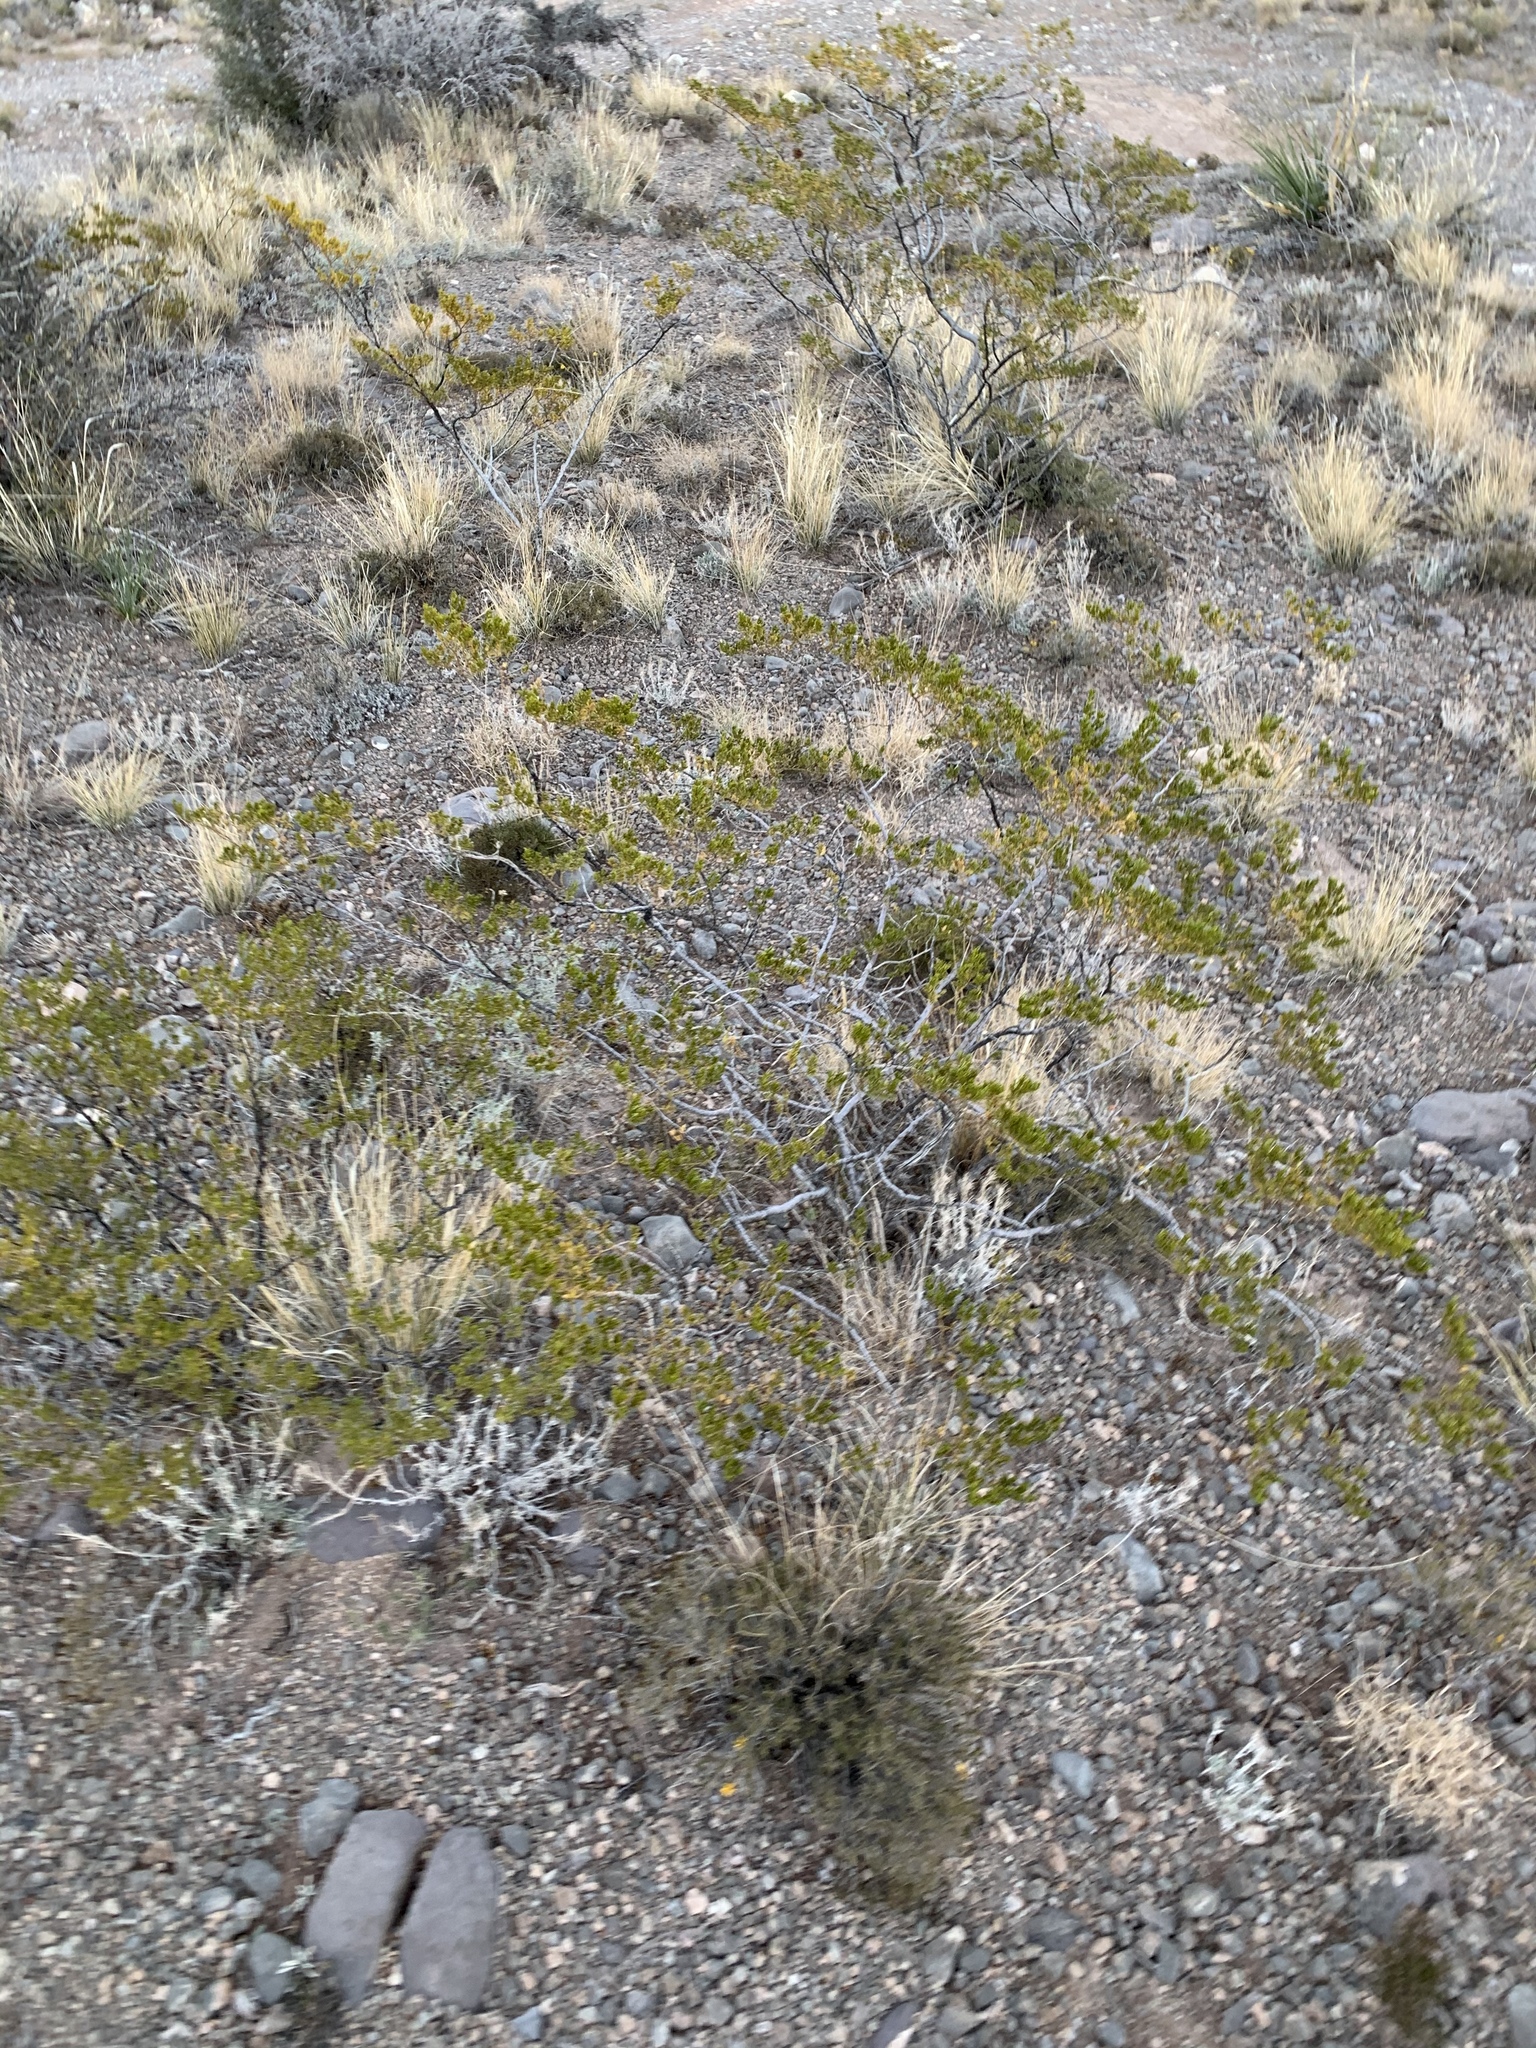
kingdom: Plantae
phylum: Tracheophyta
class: Magnoliopsida
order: Zygophyllales
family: Zygophyllaceae
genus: Larrea
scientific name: Larrea tridentata
